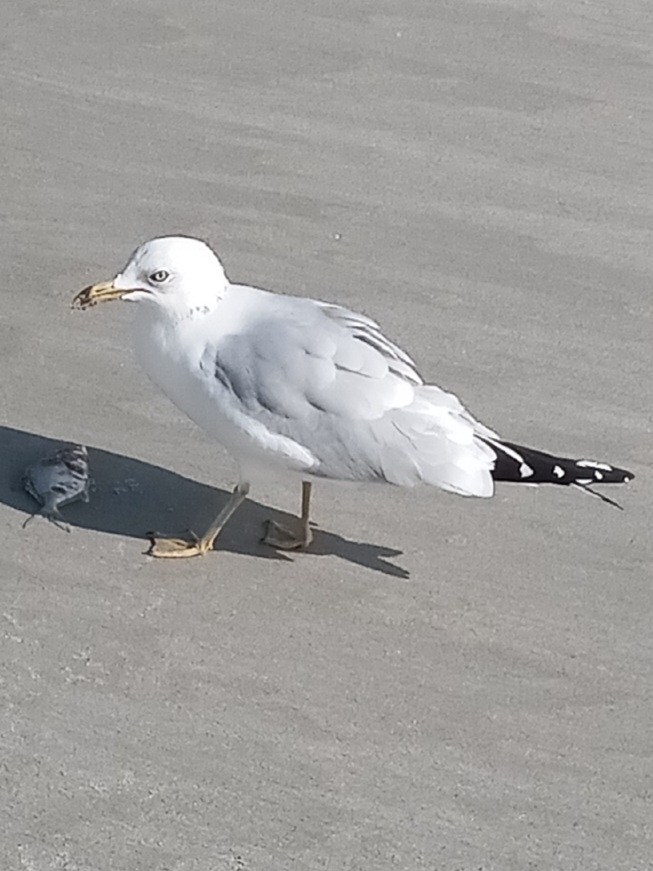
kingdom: Animalia
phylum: Chordata
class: Aves
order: Charadriiformes
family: Laridae
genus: Larus
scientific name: Larus delawarensis
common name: Ring-billed gull
